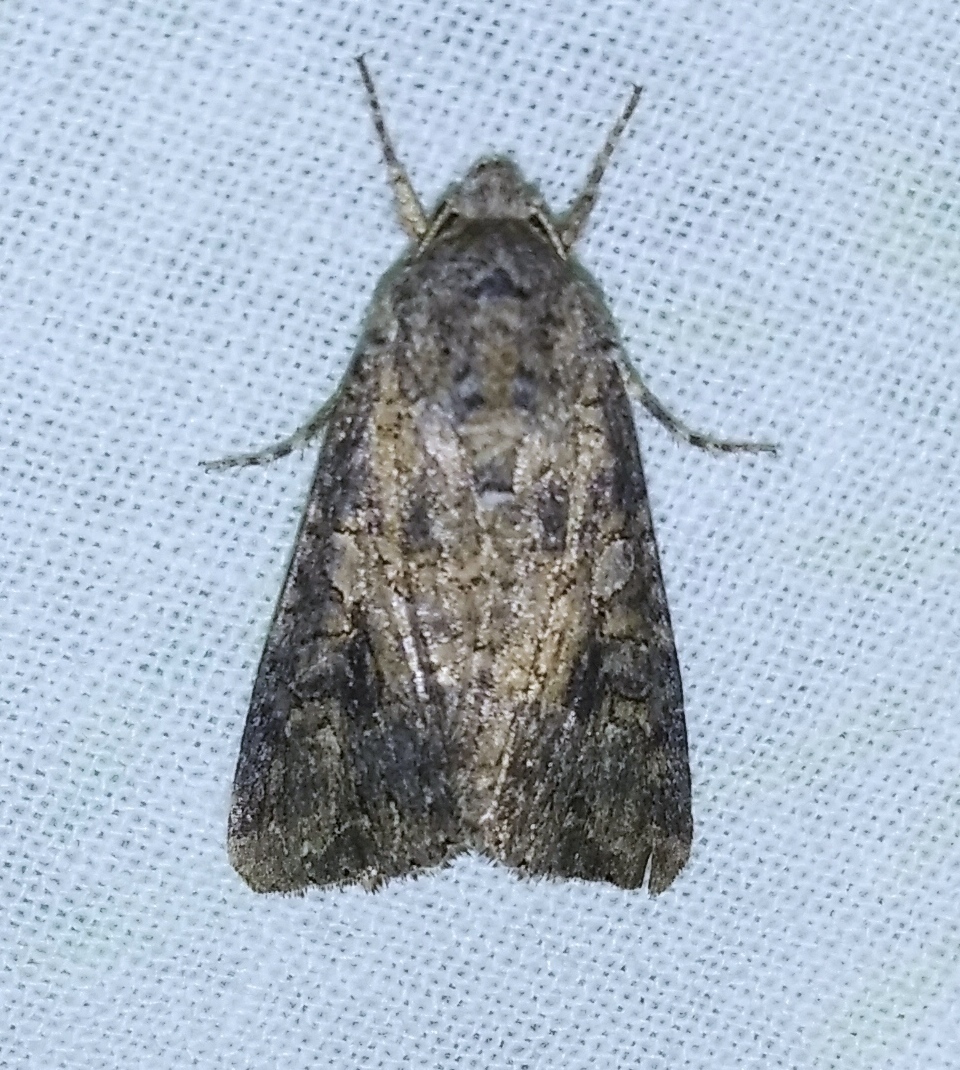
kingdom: Animalia
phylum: Arthropoda
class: Insecta
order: Lepidoptera
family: Noctuidae
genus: Anarta
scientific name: Anarta trifolii
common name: Clover cutworm moth
